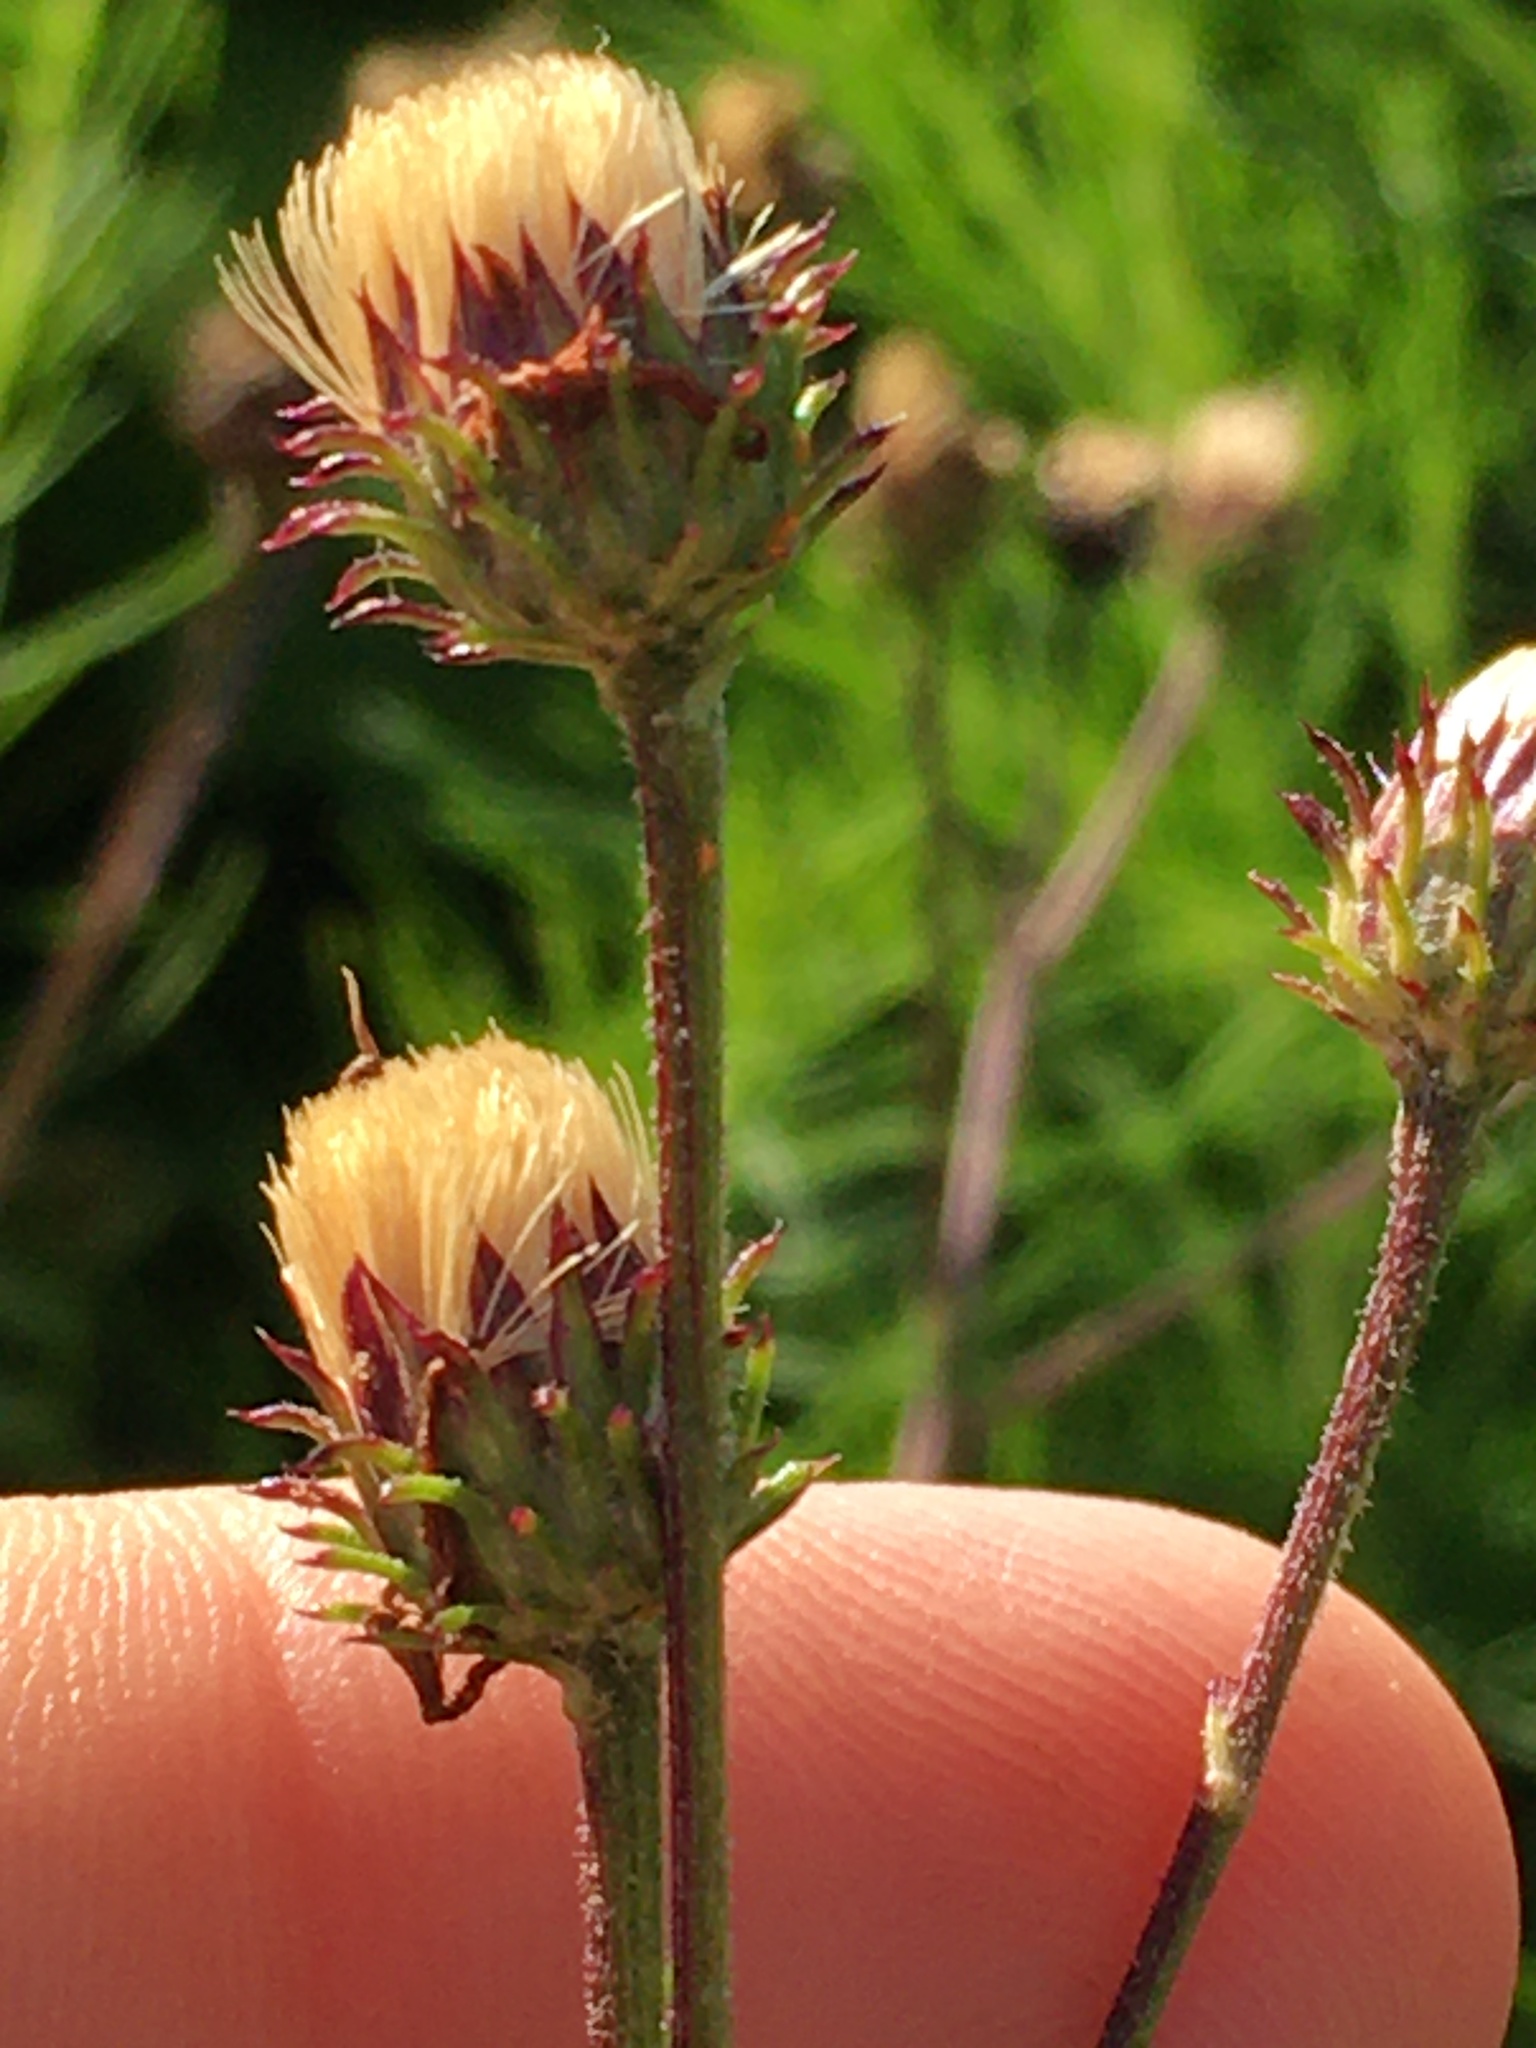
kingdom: Plantae
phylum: Tracheophyta
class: Magnoliopsida
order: Asterales
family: Asteraceae
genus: Vernonia
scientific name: Vernonia acaulis
